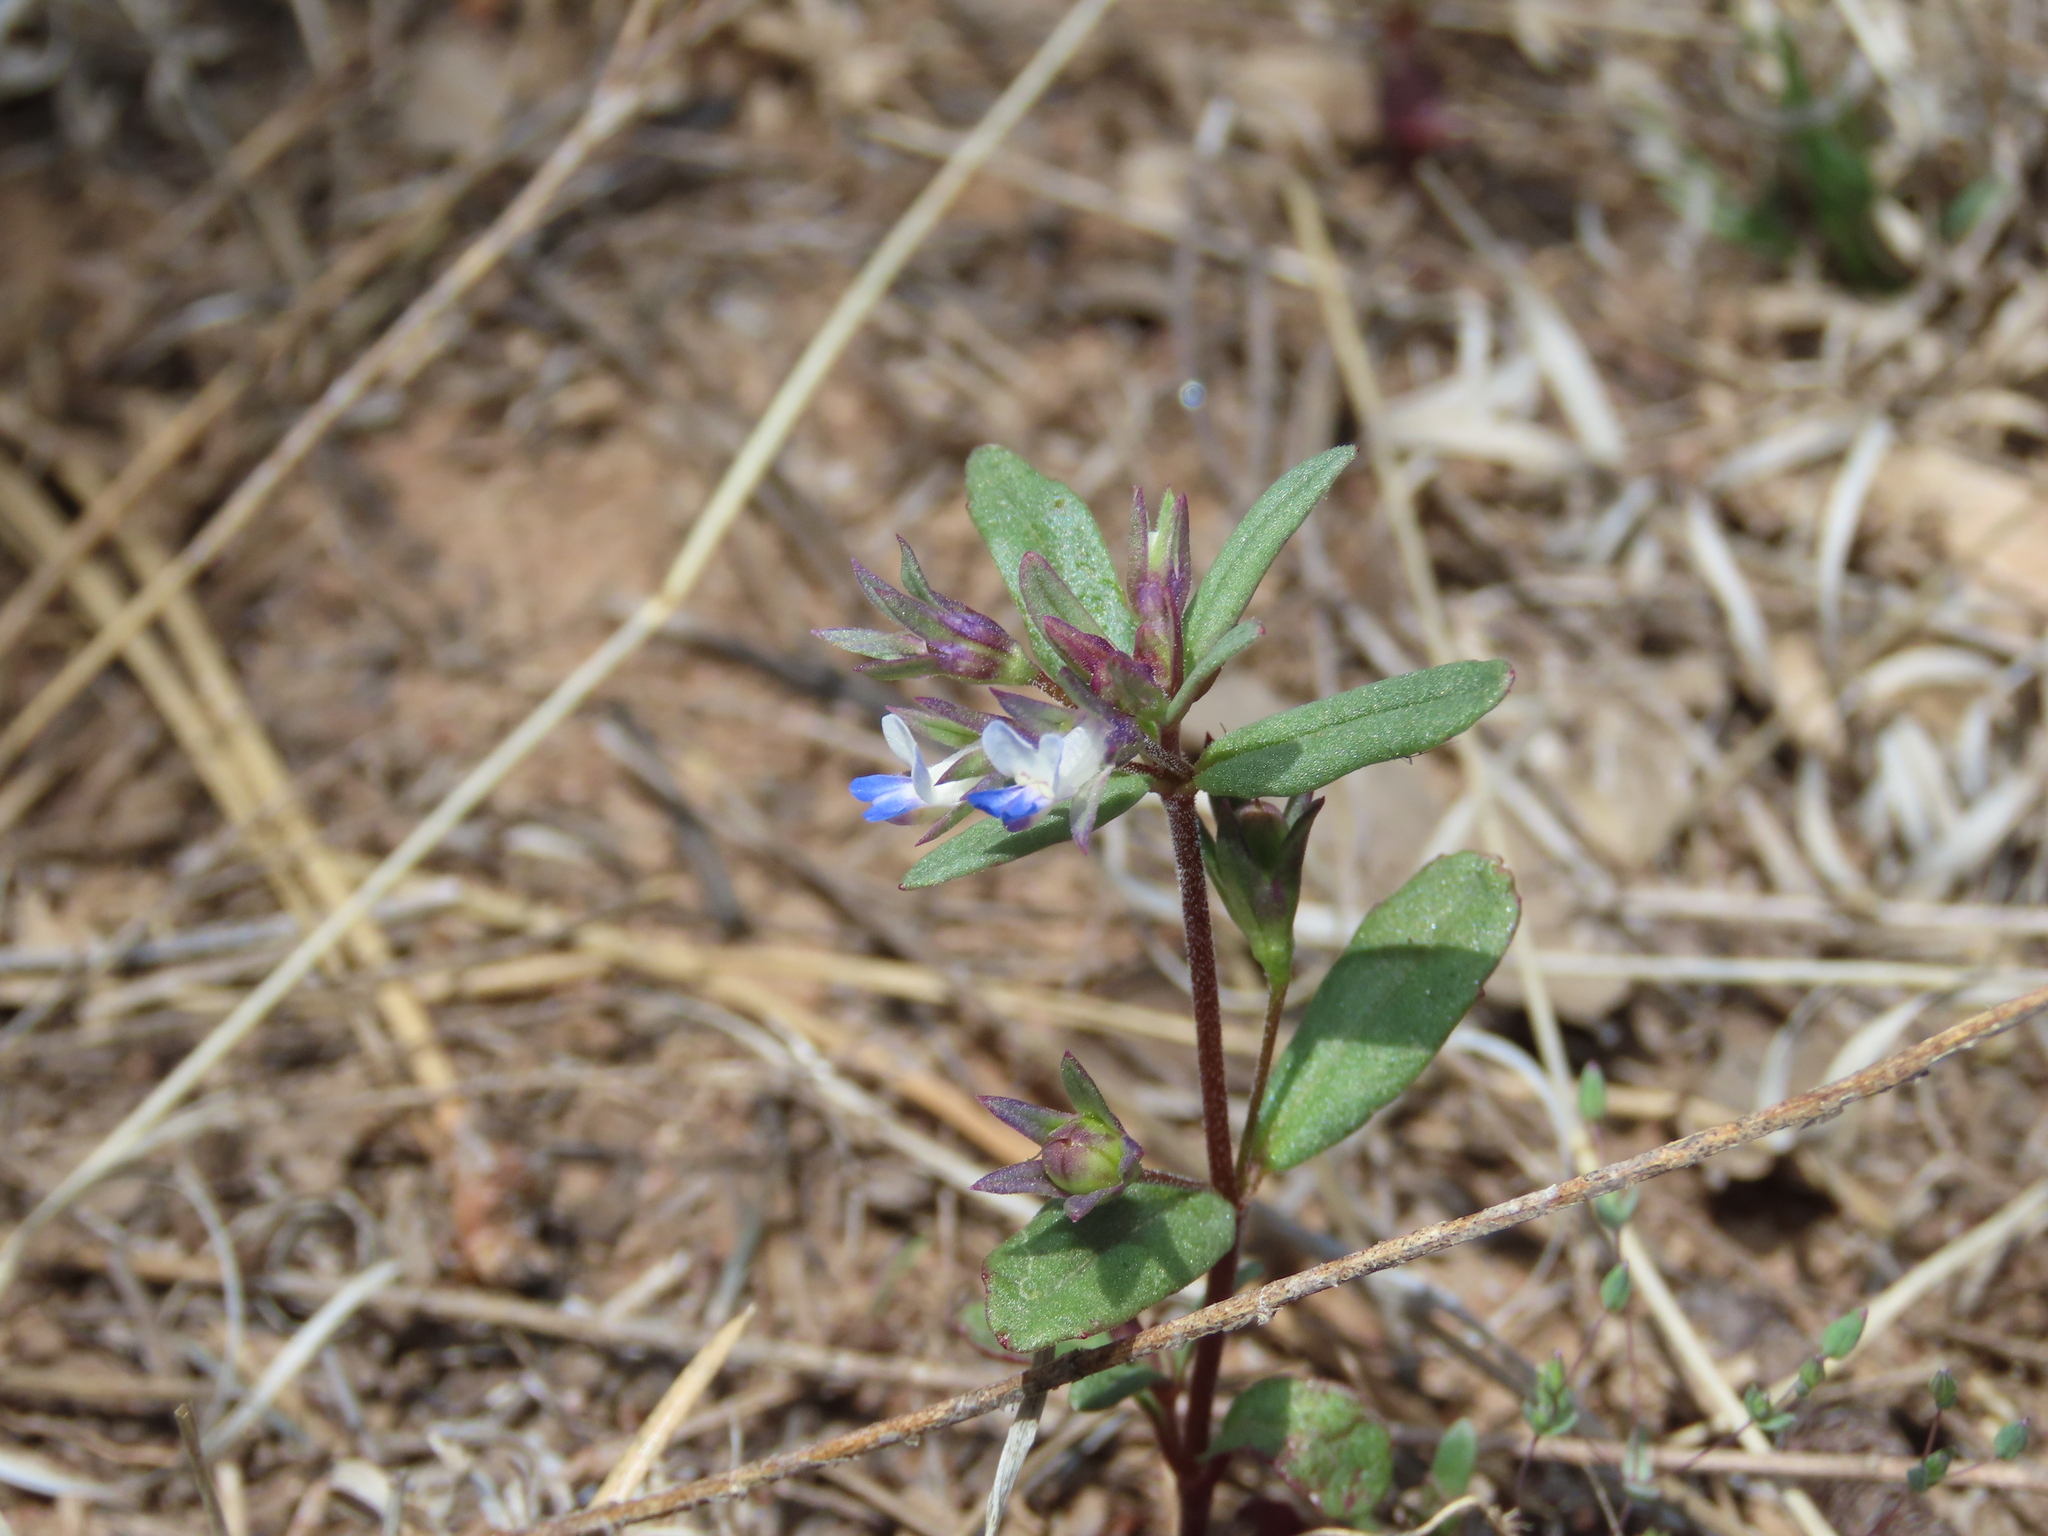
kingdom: Plantae
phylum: Tracheophyta
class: Magnoliopsida
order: Lamiales
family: Plantaginaceae
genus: Collinsia
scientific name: Collinsia parviflora
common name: Blue-lips
